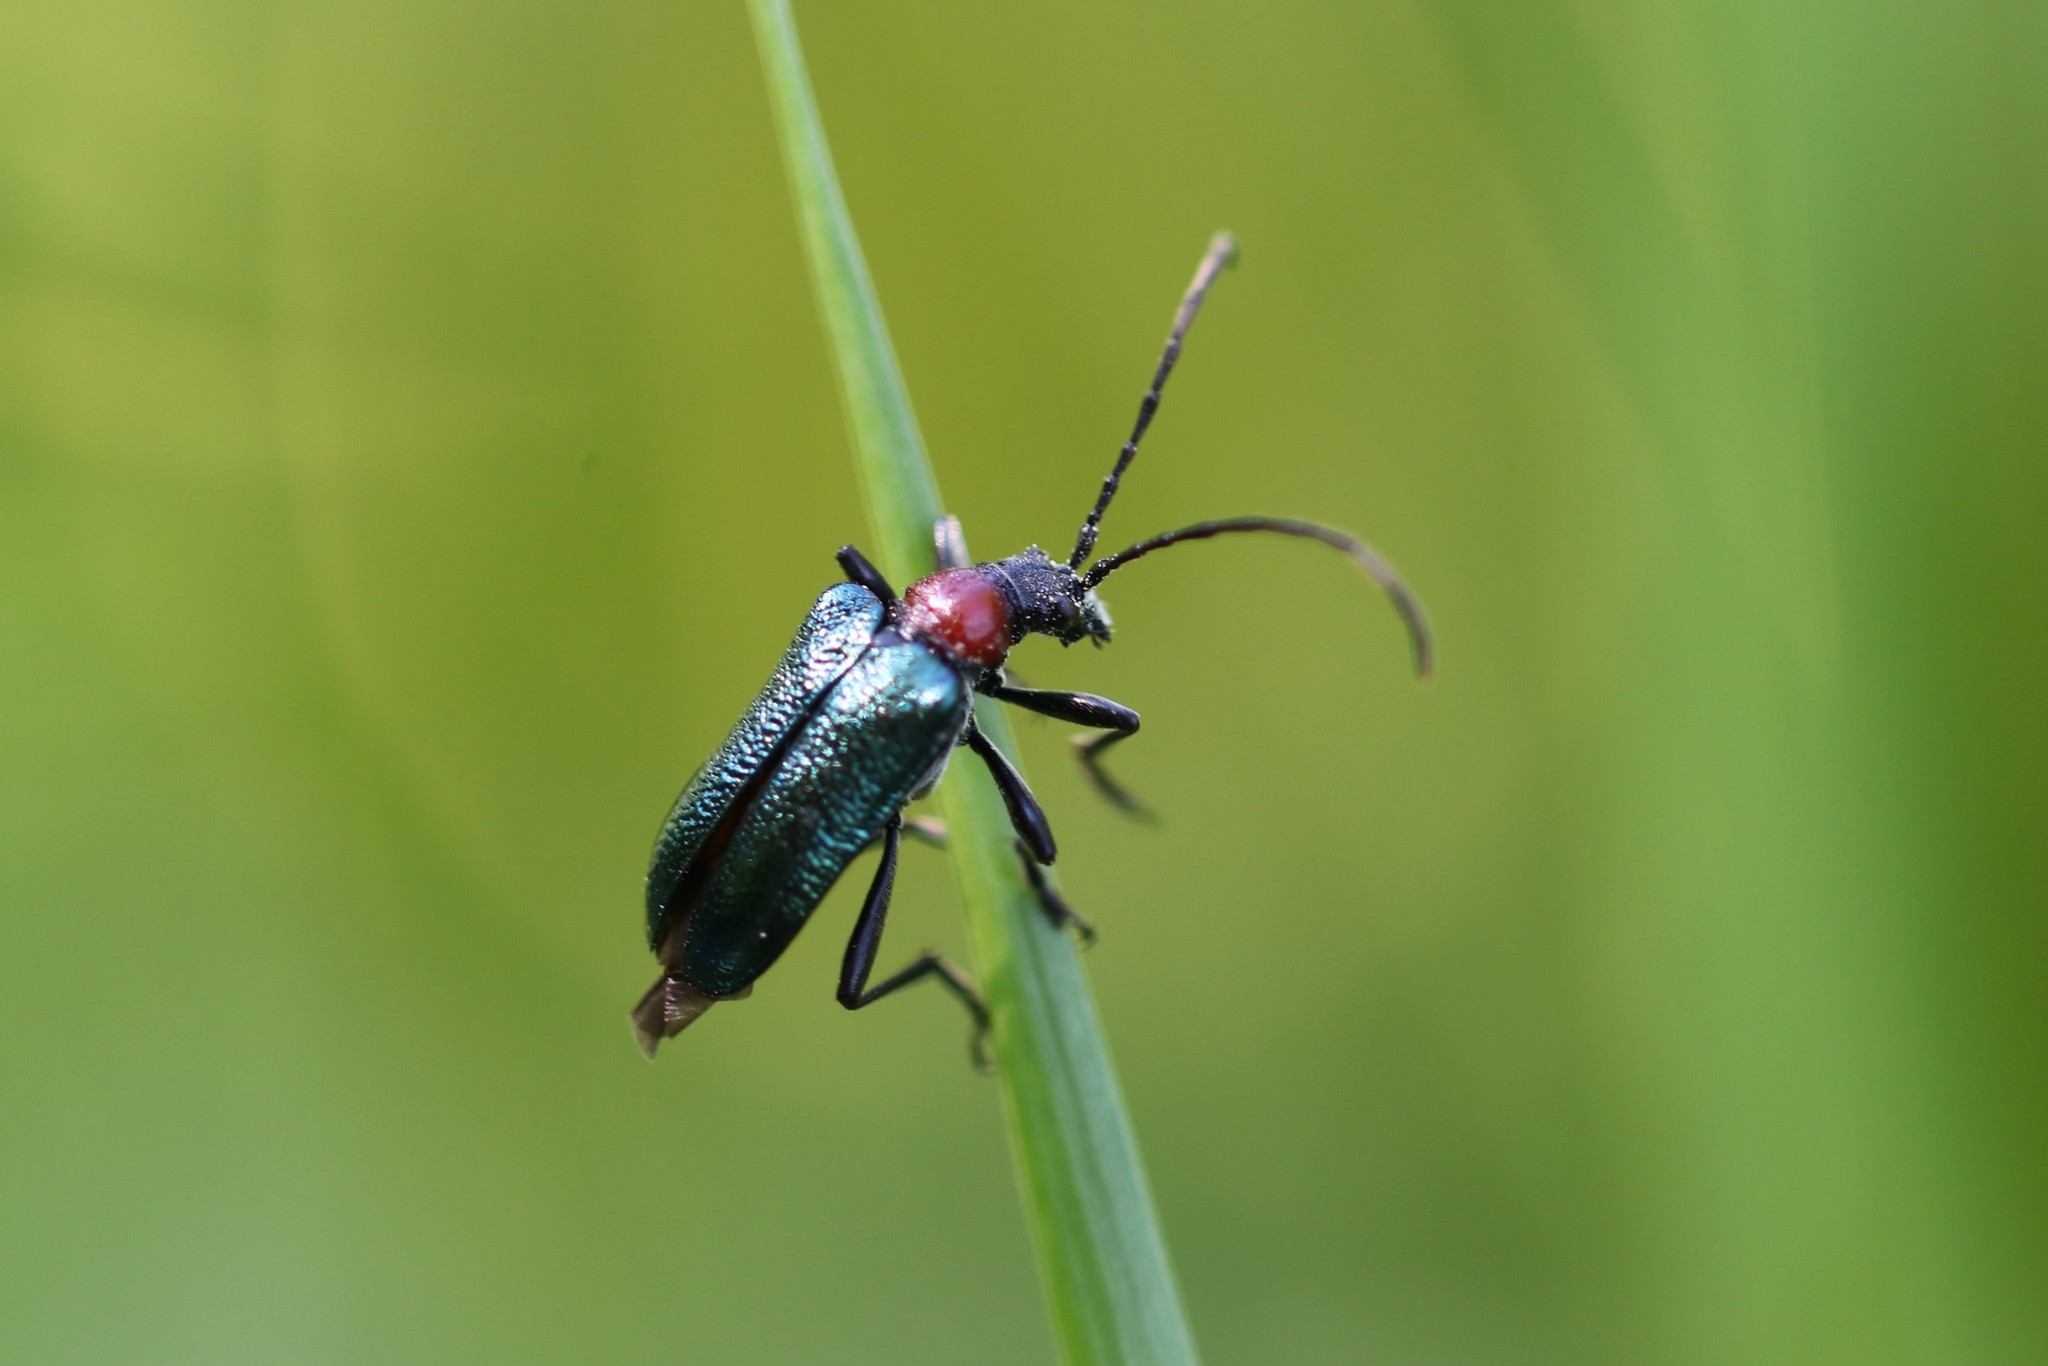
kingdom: Animalia
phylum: Arthropoda
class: Insecta
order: Coleoptera
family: Cerambycidae
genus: Gaurotes
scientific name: Gaurotes virginea
